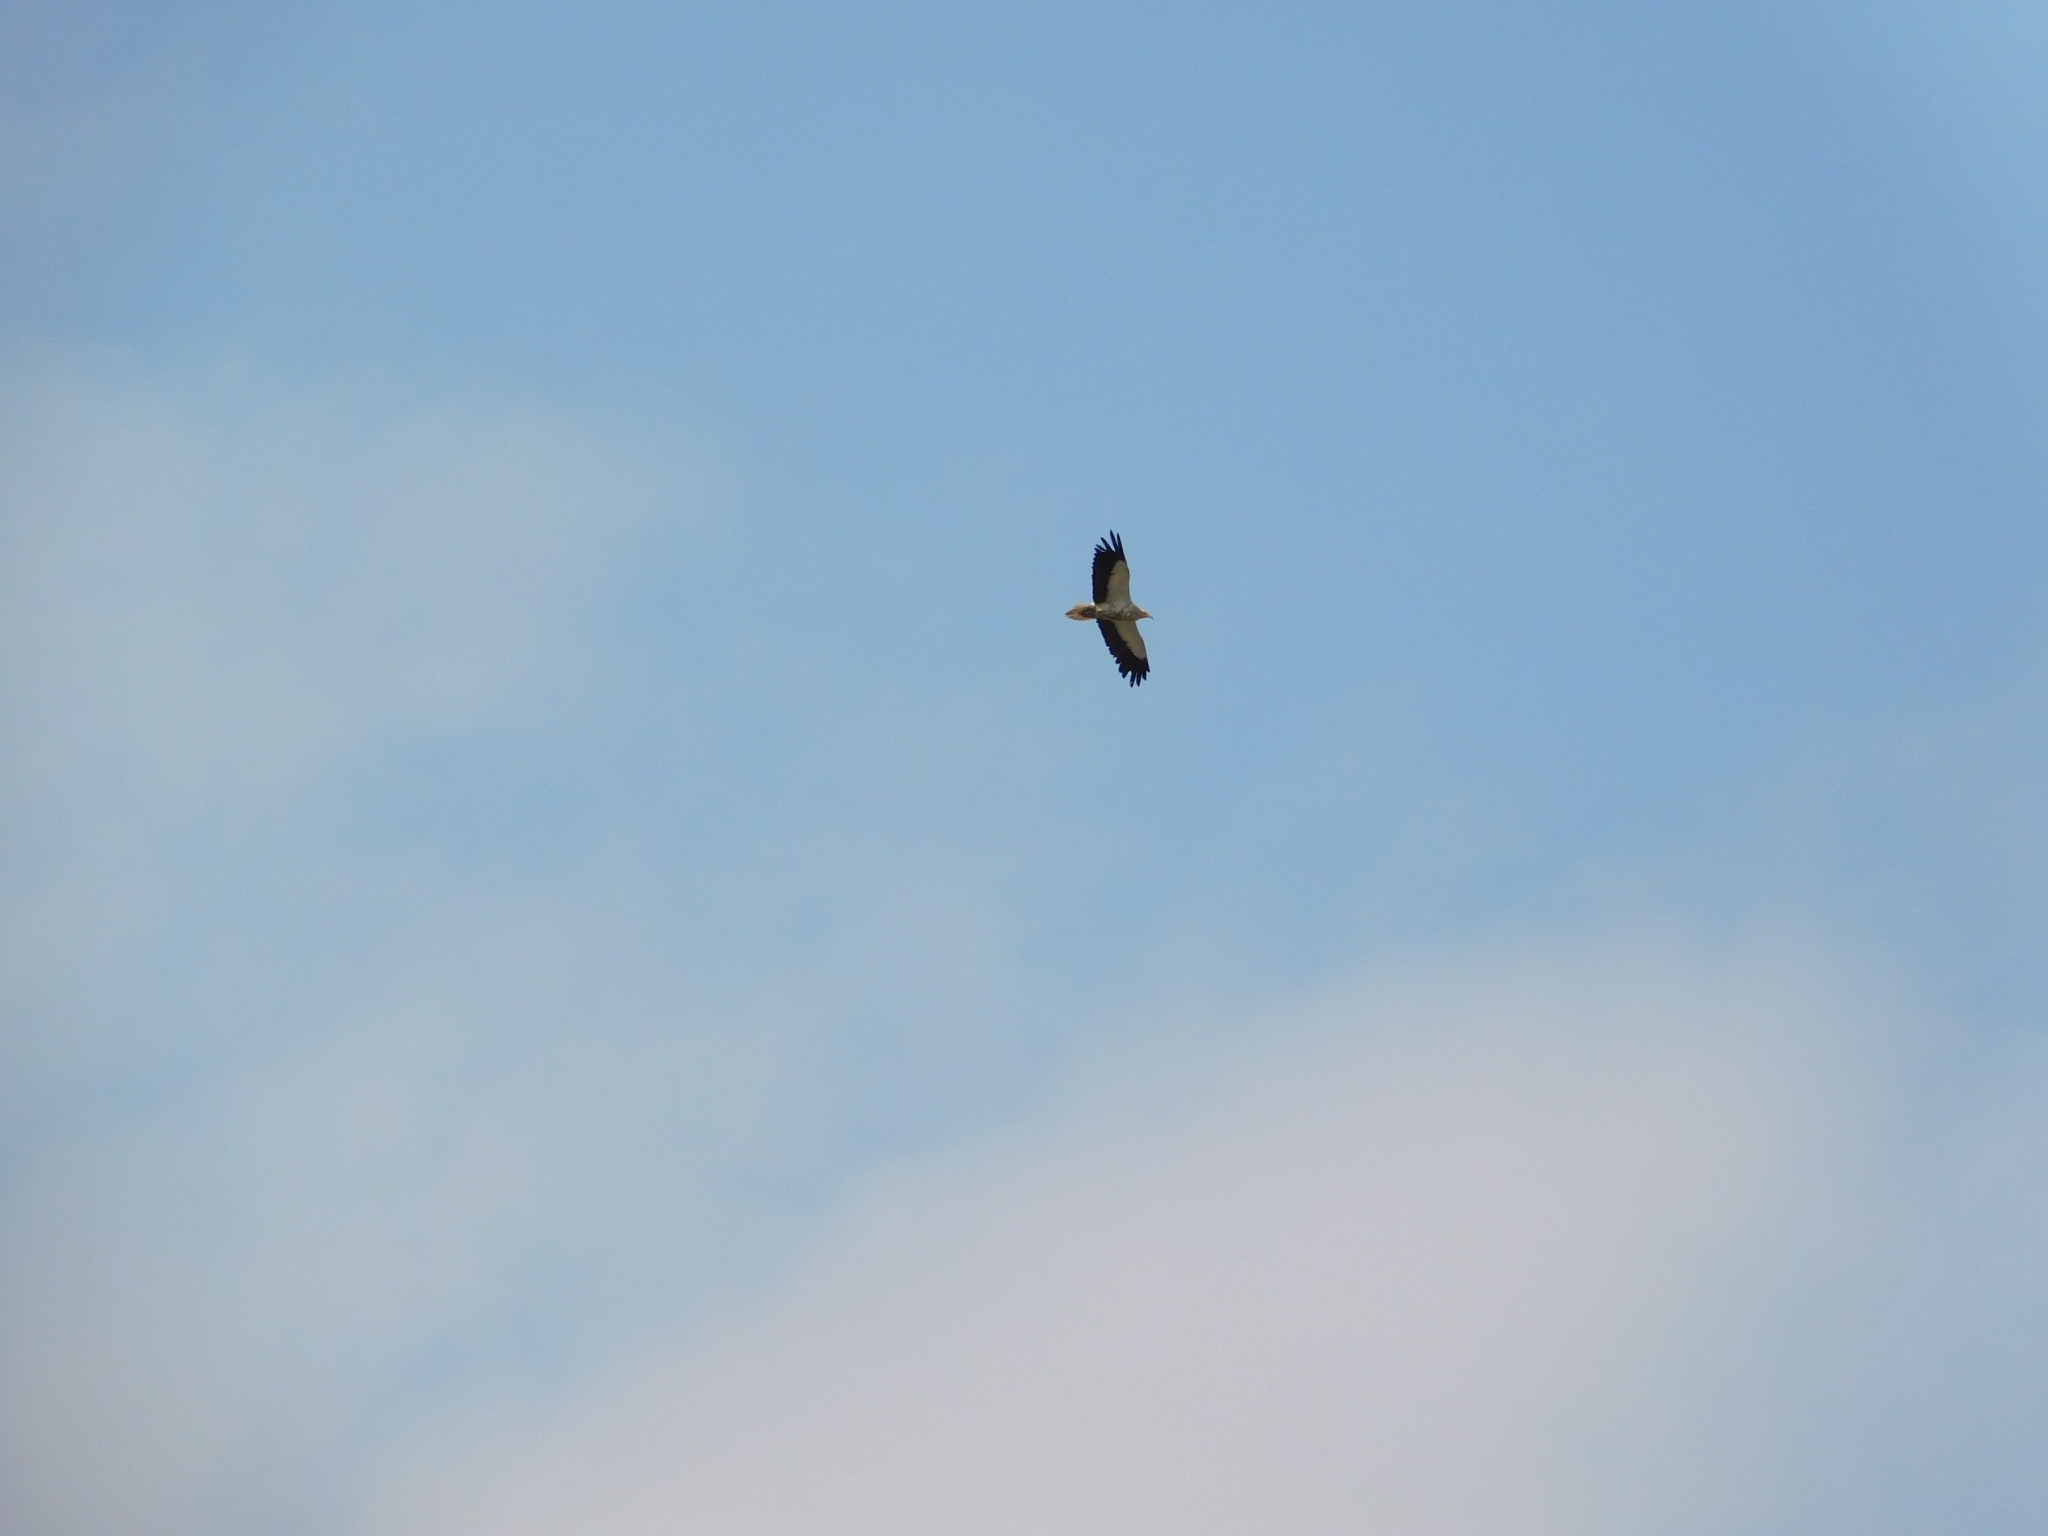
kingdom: Animalia
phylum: Chordata
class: Aves
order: Accipitriformes
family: Accipitridae
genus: Neophron
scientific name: Neophron percnopterus
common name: Egyptian vulture
